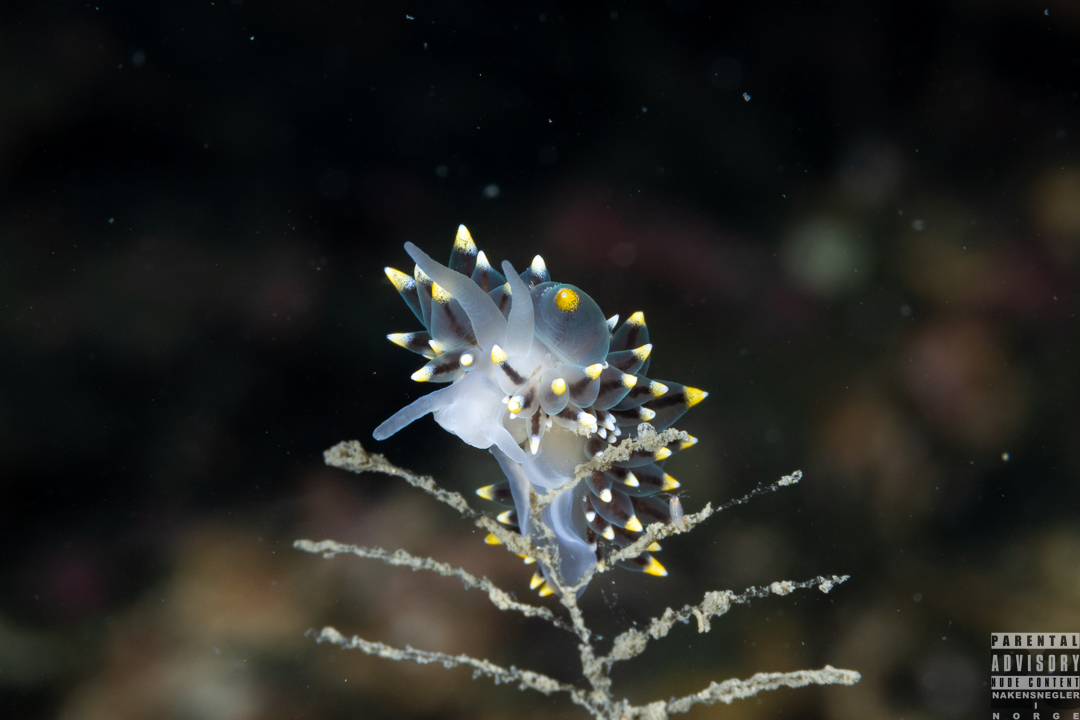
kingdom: Animalia
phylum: Mollusca
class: Gastropoda
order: Nudibranchia
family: Eubranchidae
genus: Eubranchus
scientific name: Eubranchus tricolor
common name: Painted balloon aeolis
